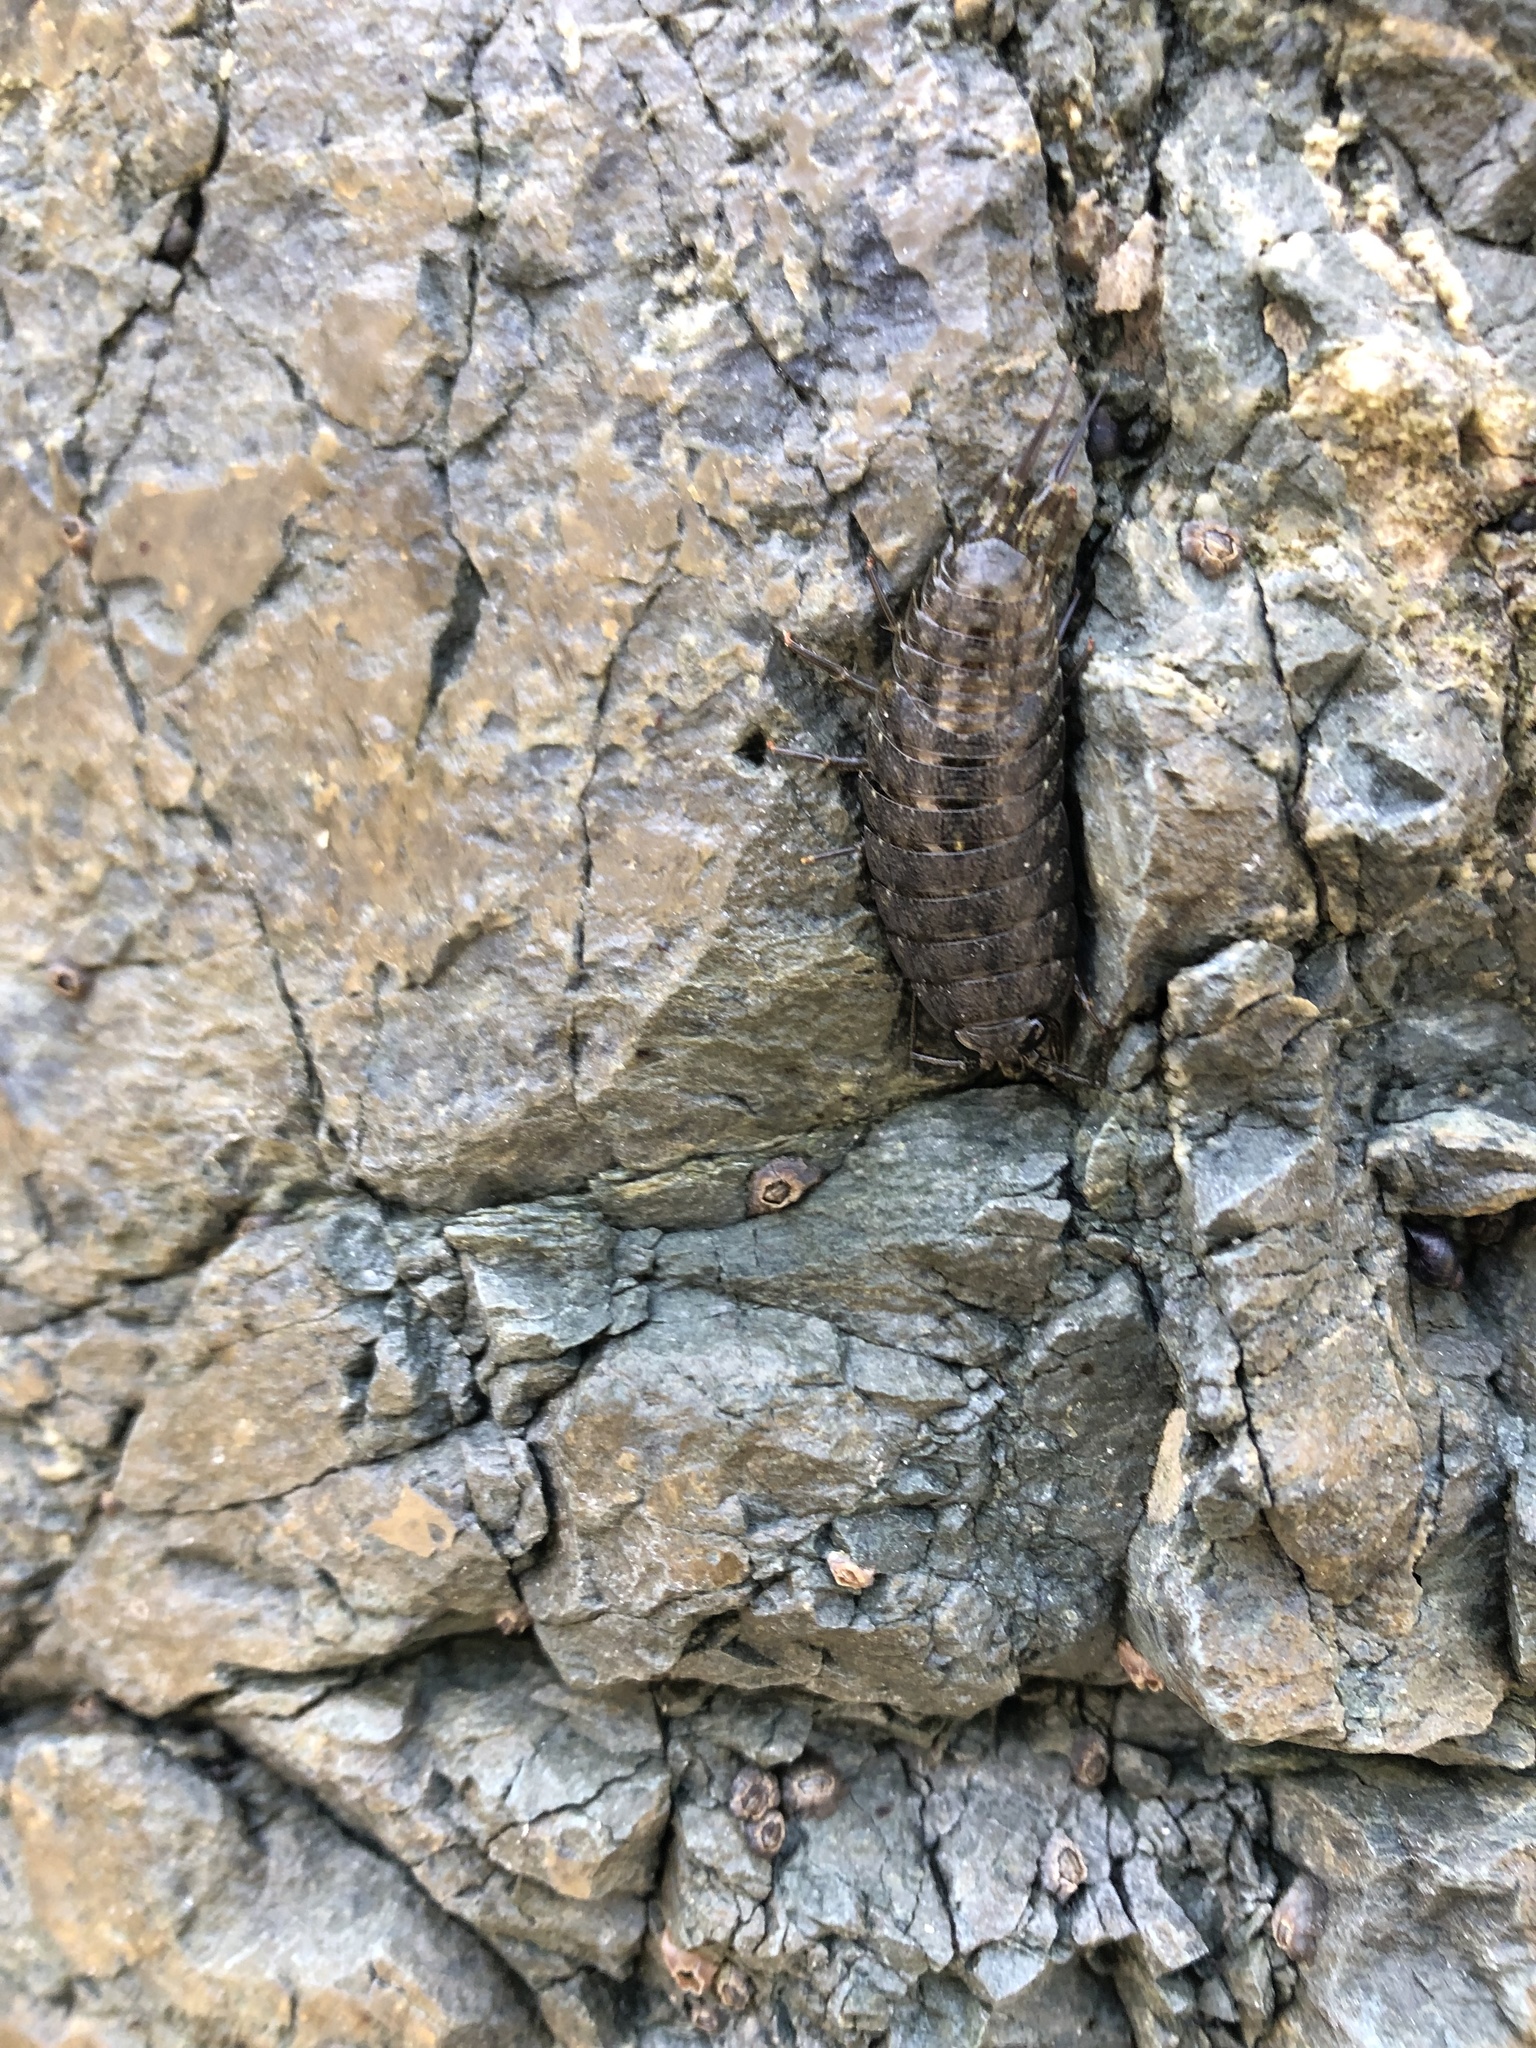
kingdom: Animalia
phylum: Arthropoda
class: Malacostraca
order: Isopoda
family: Ligiidae
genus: Ligia
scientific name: Ligia occidentalis
